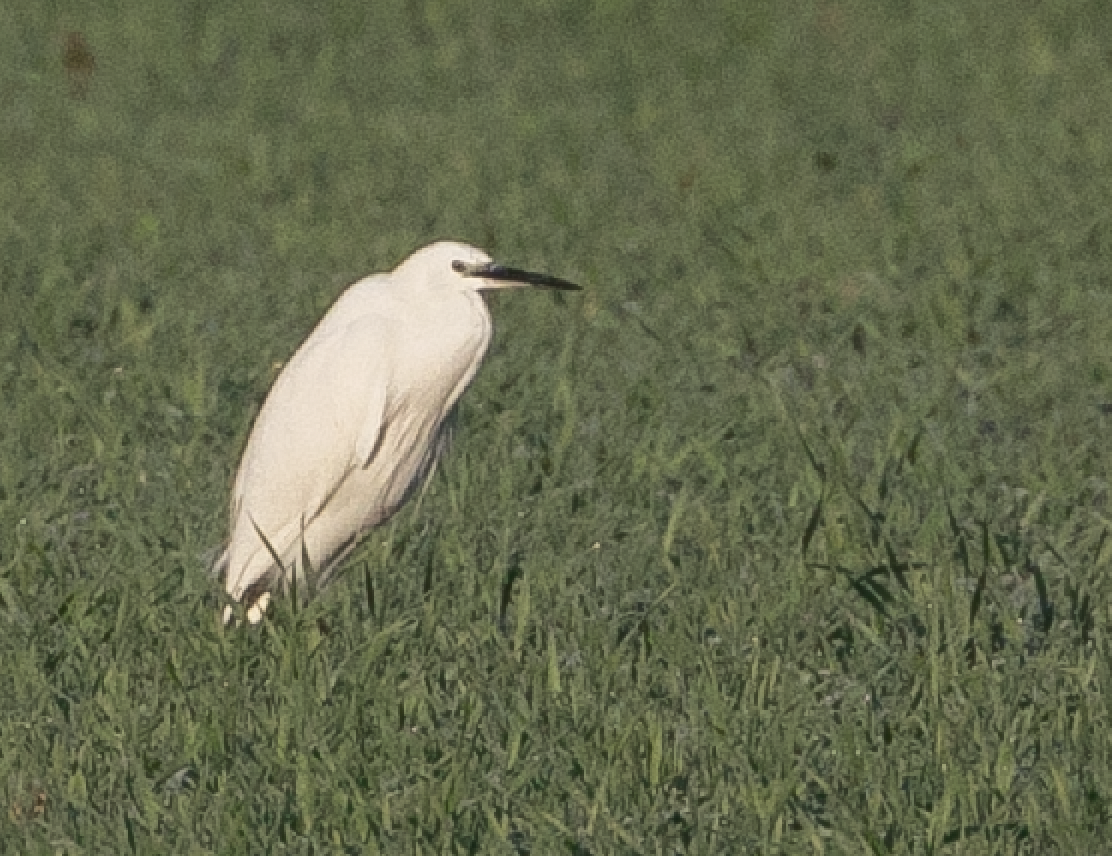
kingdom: Animalia
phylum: Chordata
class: Aves
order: Pelecaniformes
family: Ardeidae
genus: Egretta
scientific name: Egretta garzetta
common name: Little egret
